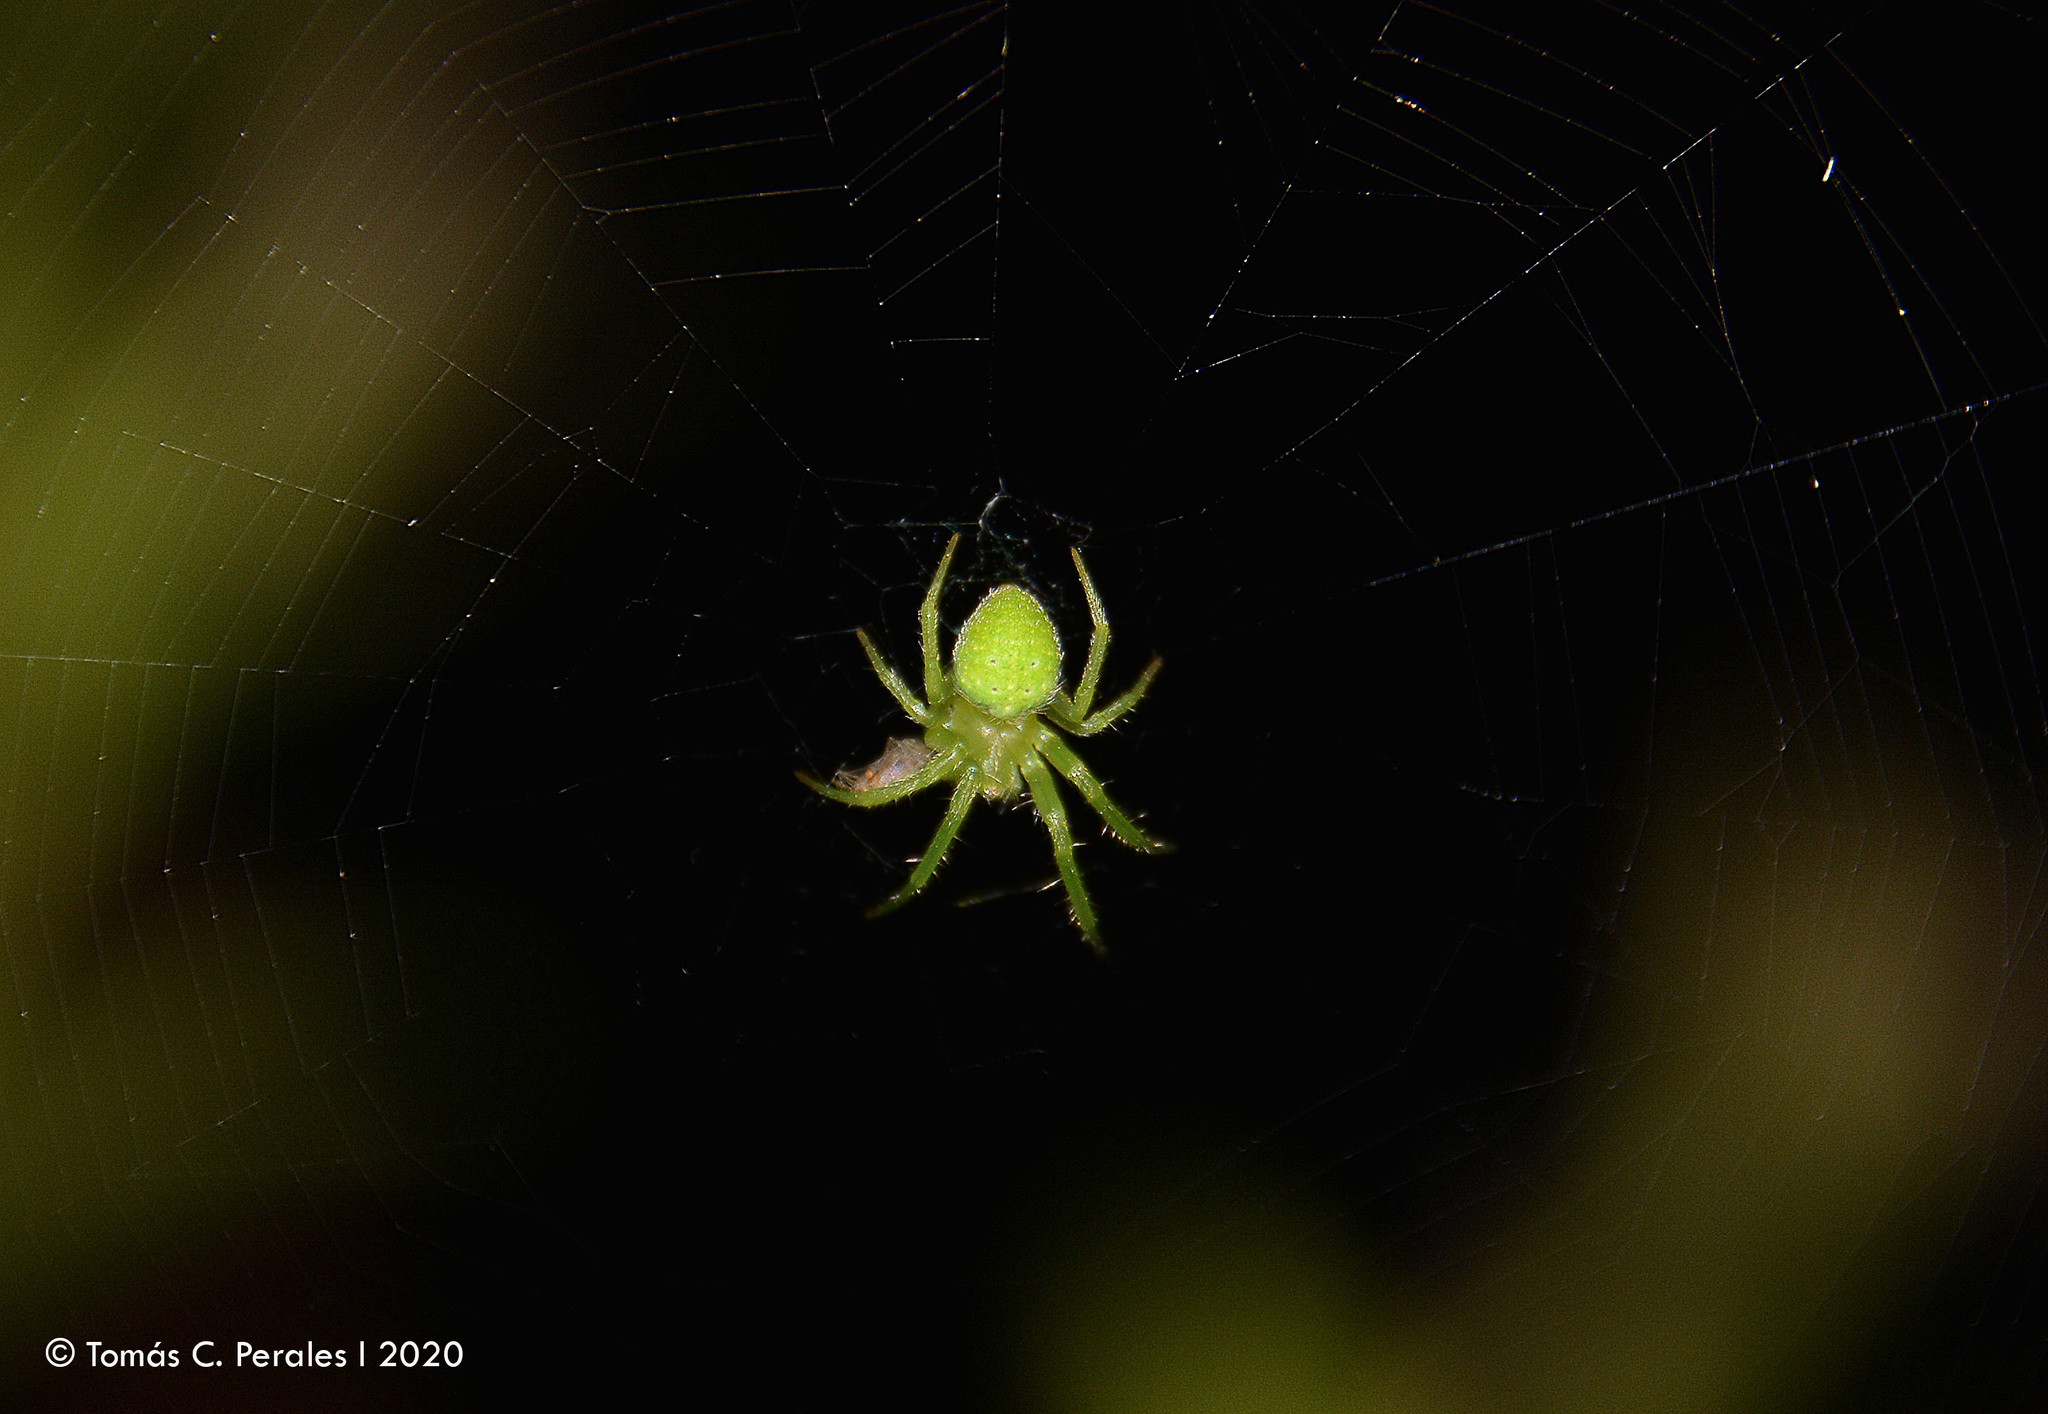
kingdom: Animalia
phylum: Arthropoda
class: Arachnida
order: Araneae
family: Araneidae
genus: Araneus
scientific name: Araneus uniformis
